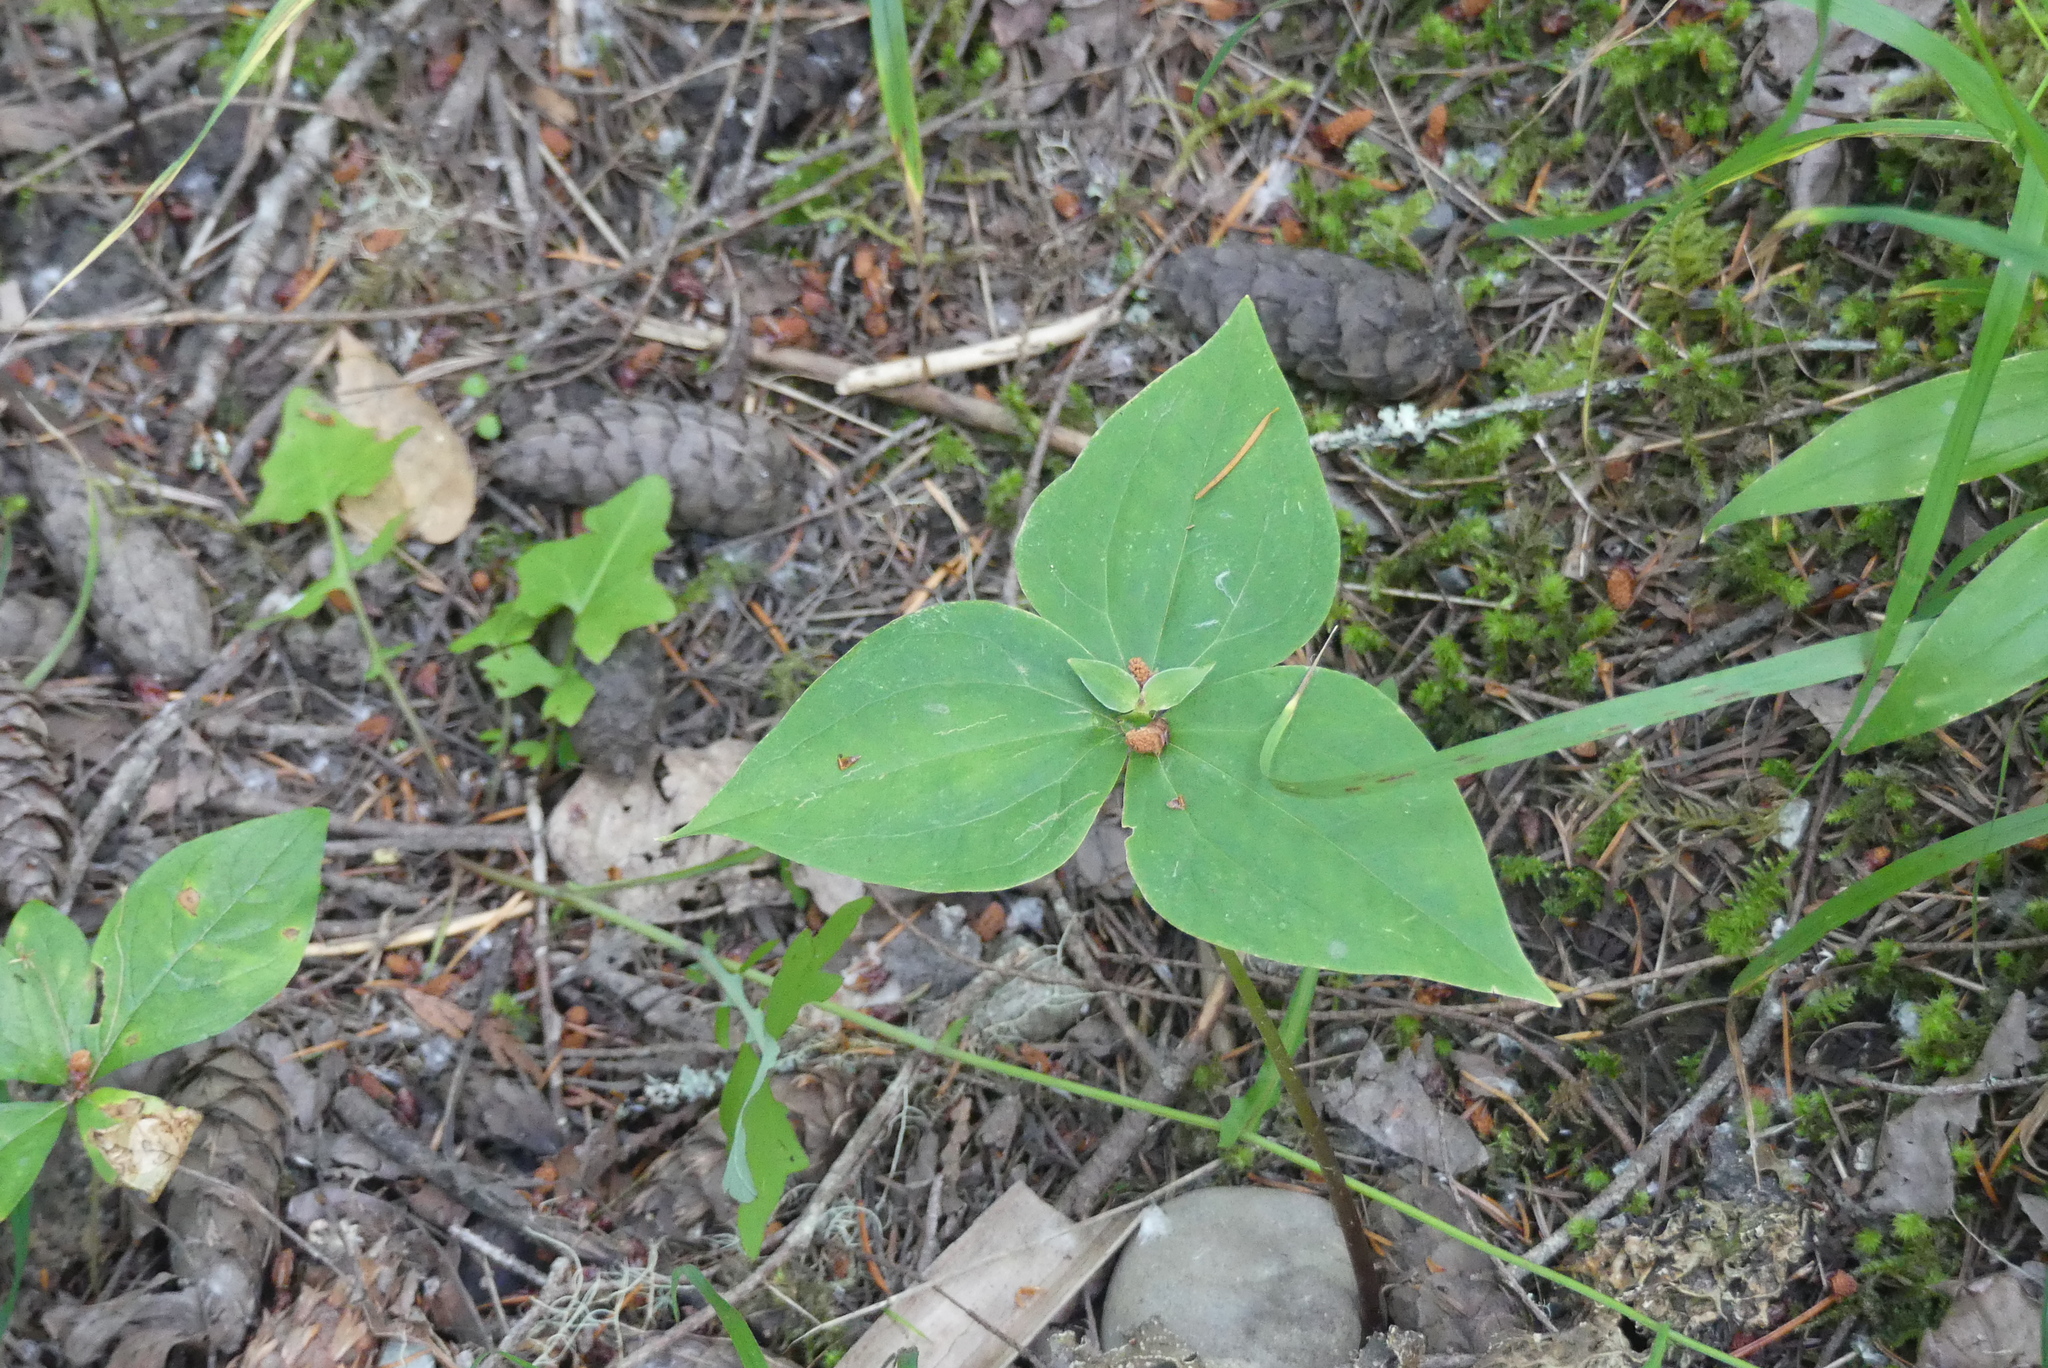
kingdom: Plantae
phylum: Tracheophyta
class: Liliopsida
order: Liliales
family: Melanthiaceae
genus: Trillium
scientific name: Trillium ovatum
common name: Pacific trillium
